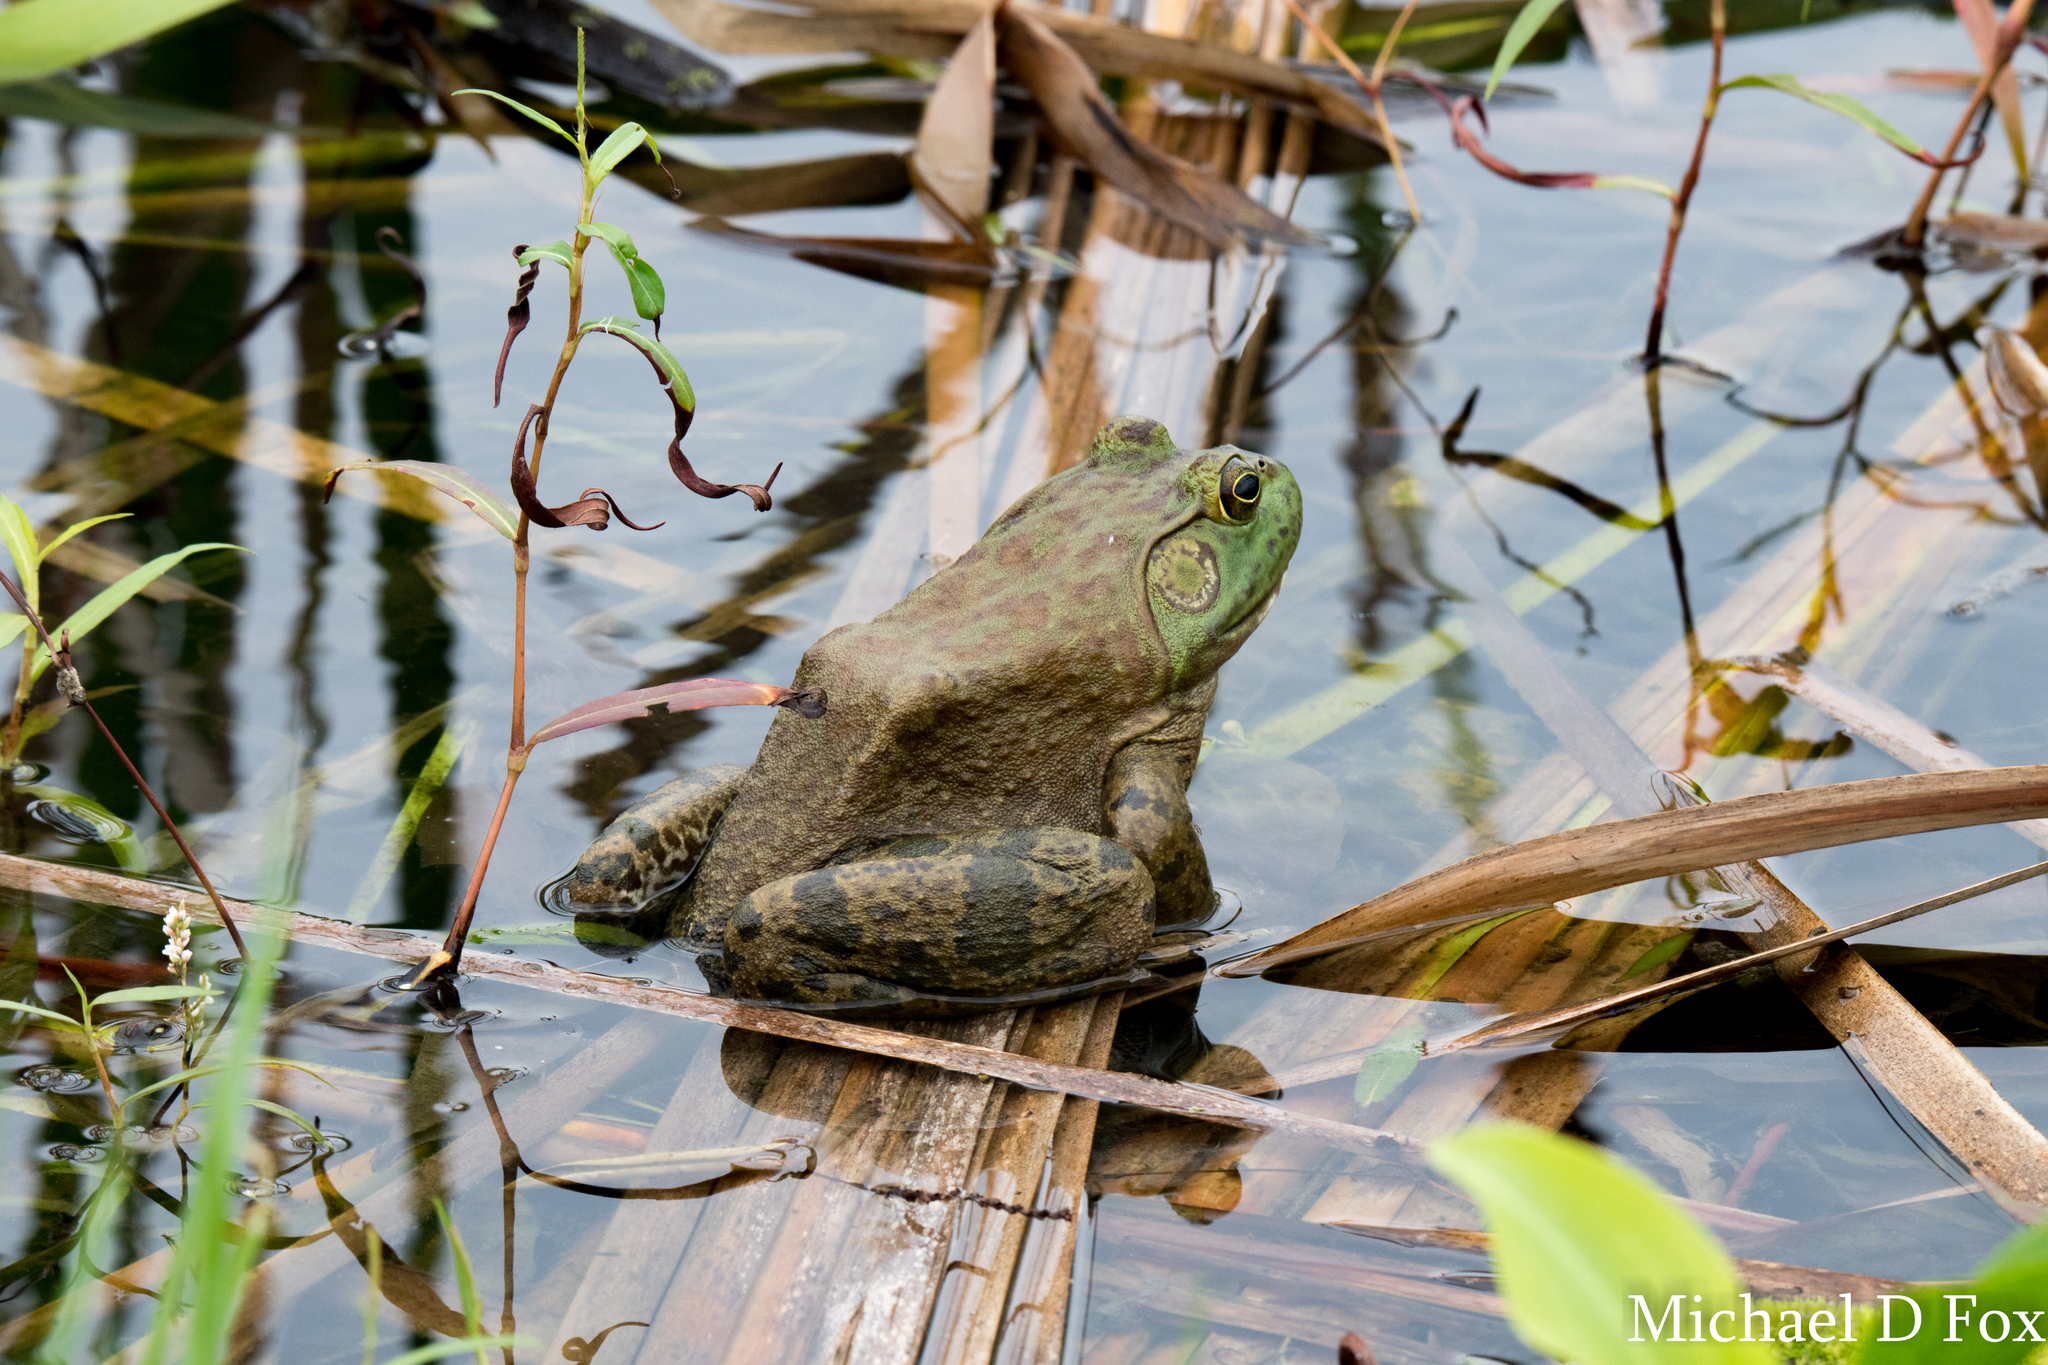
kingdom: Animalia
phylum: Chordata
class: Amphibia
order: Anura
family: Ranidae
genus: Lithobates
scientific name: Lithobates catesbeianus
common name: American bullfrog
